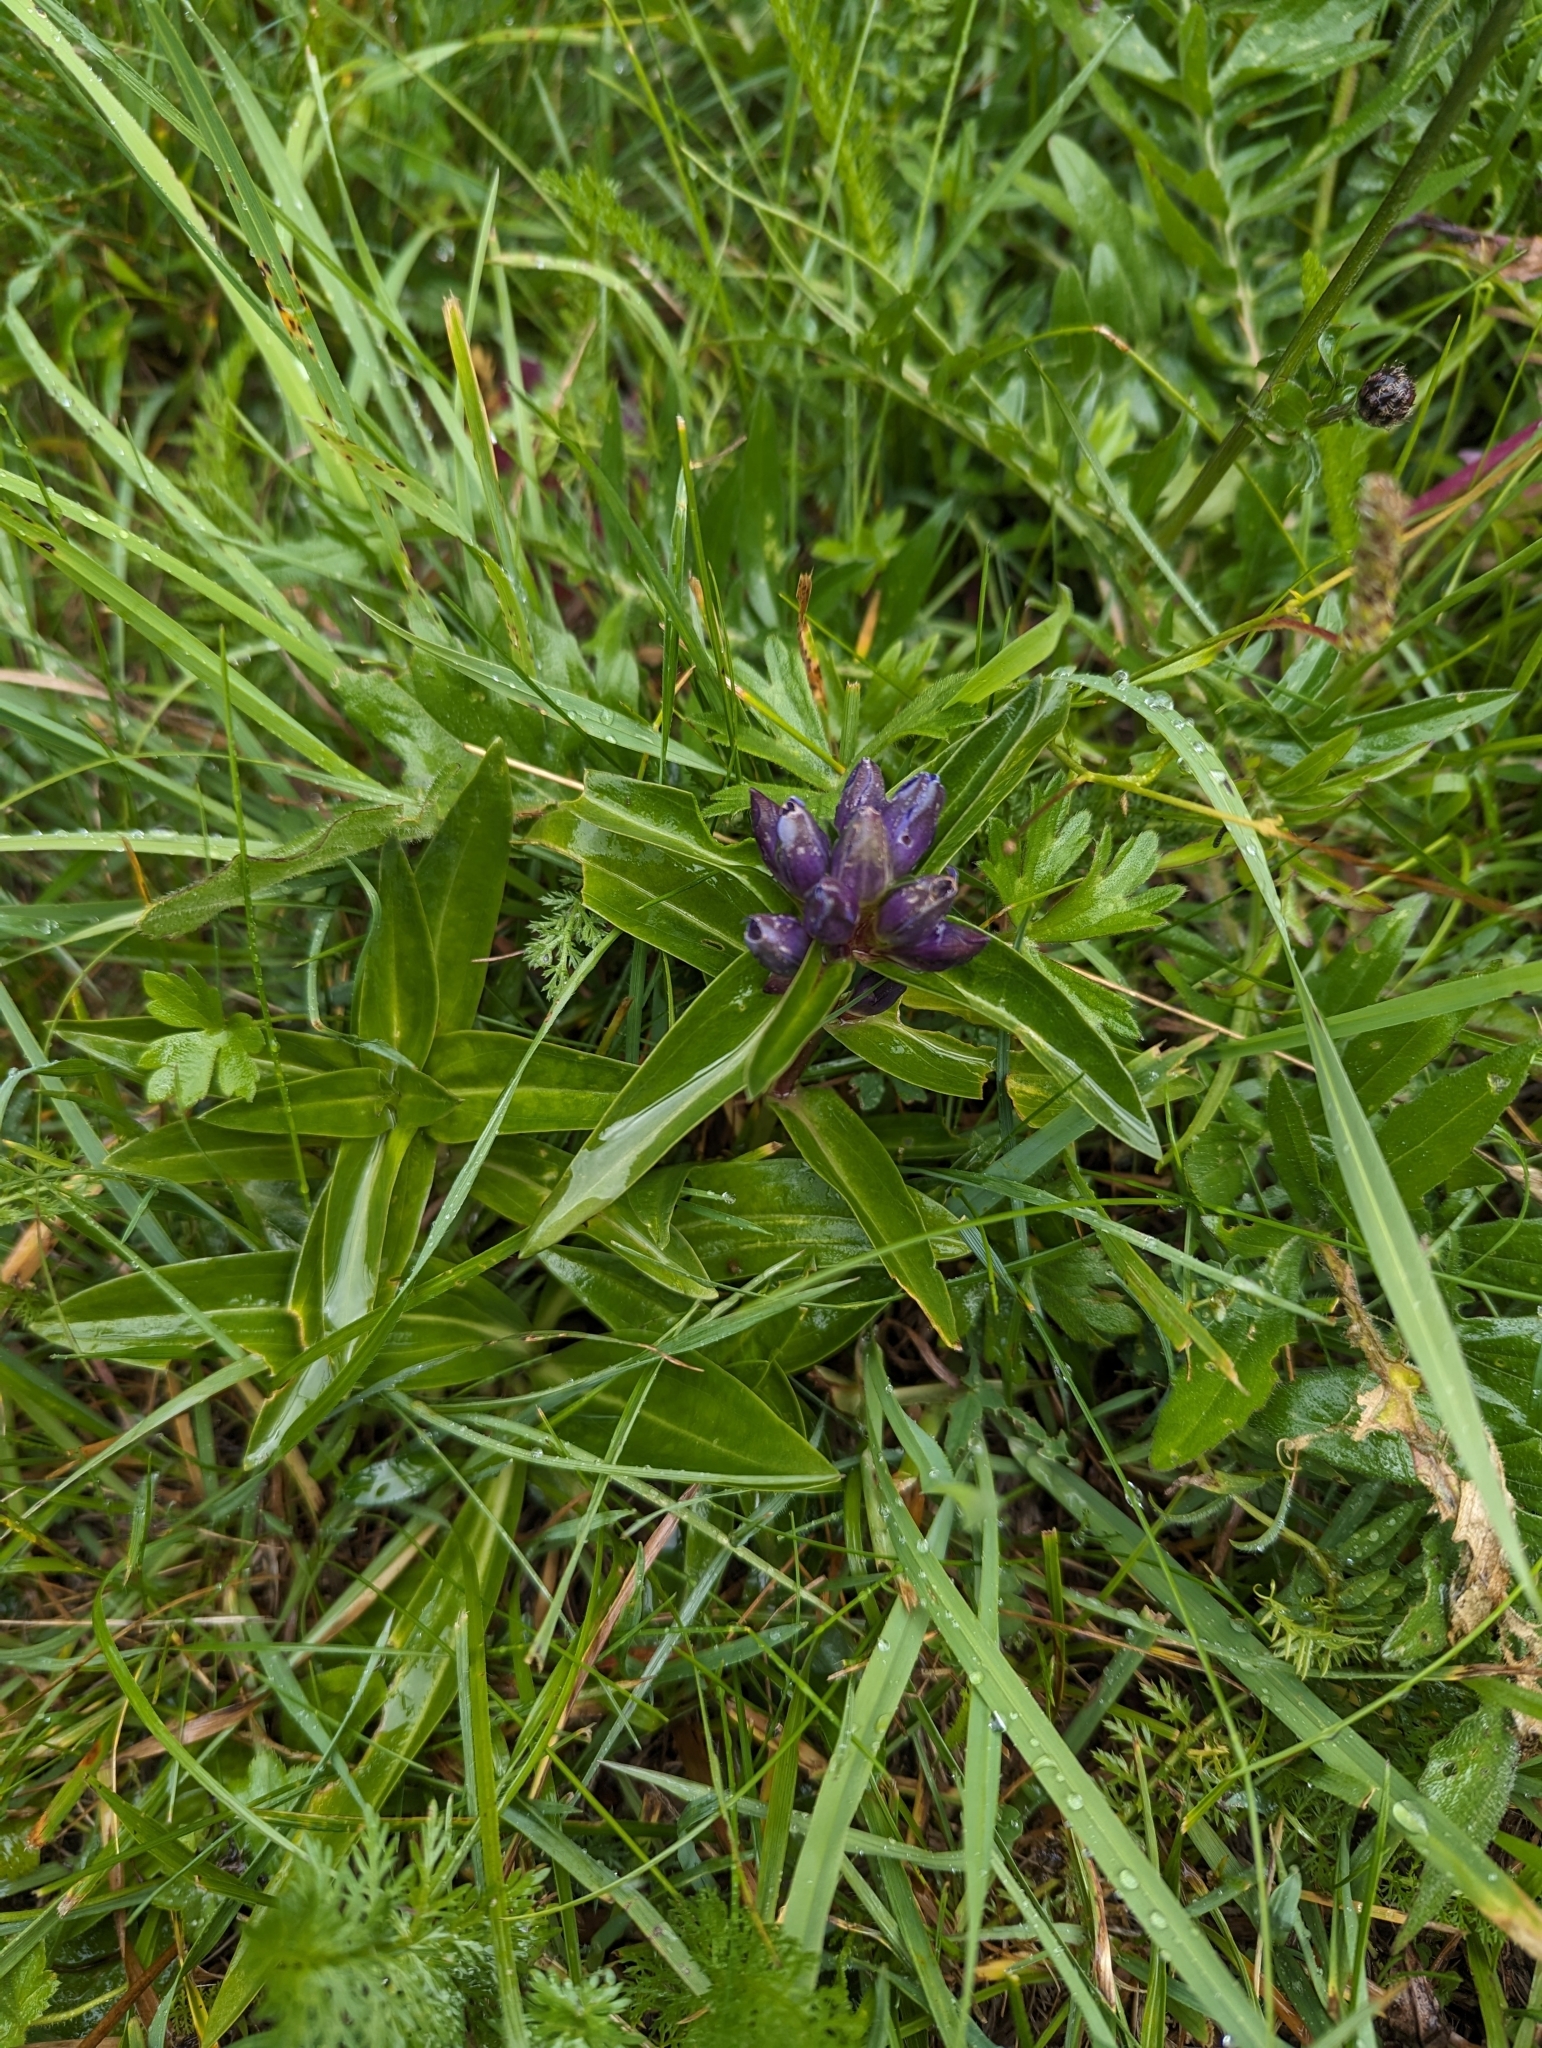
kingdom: Plantae
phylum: Tracheophyta
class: Magnoliopsida
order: Gentianales
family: Gentianaceae
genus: Gentiana
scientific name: Gentiana cruciata
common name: Cross gentian
